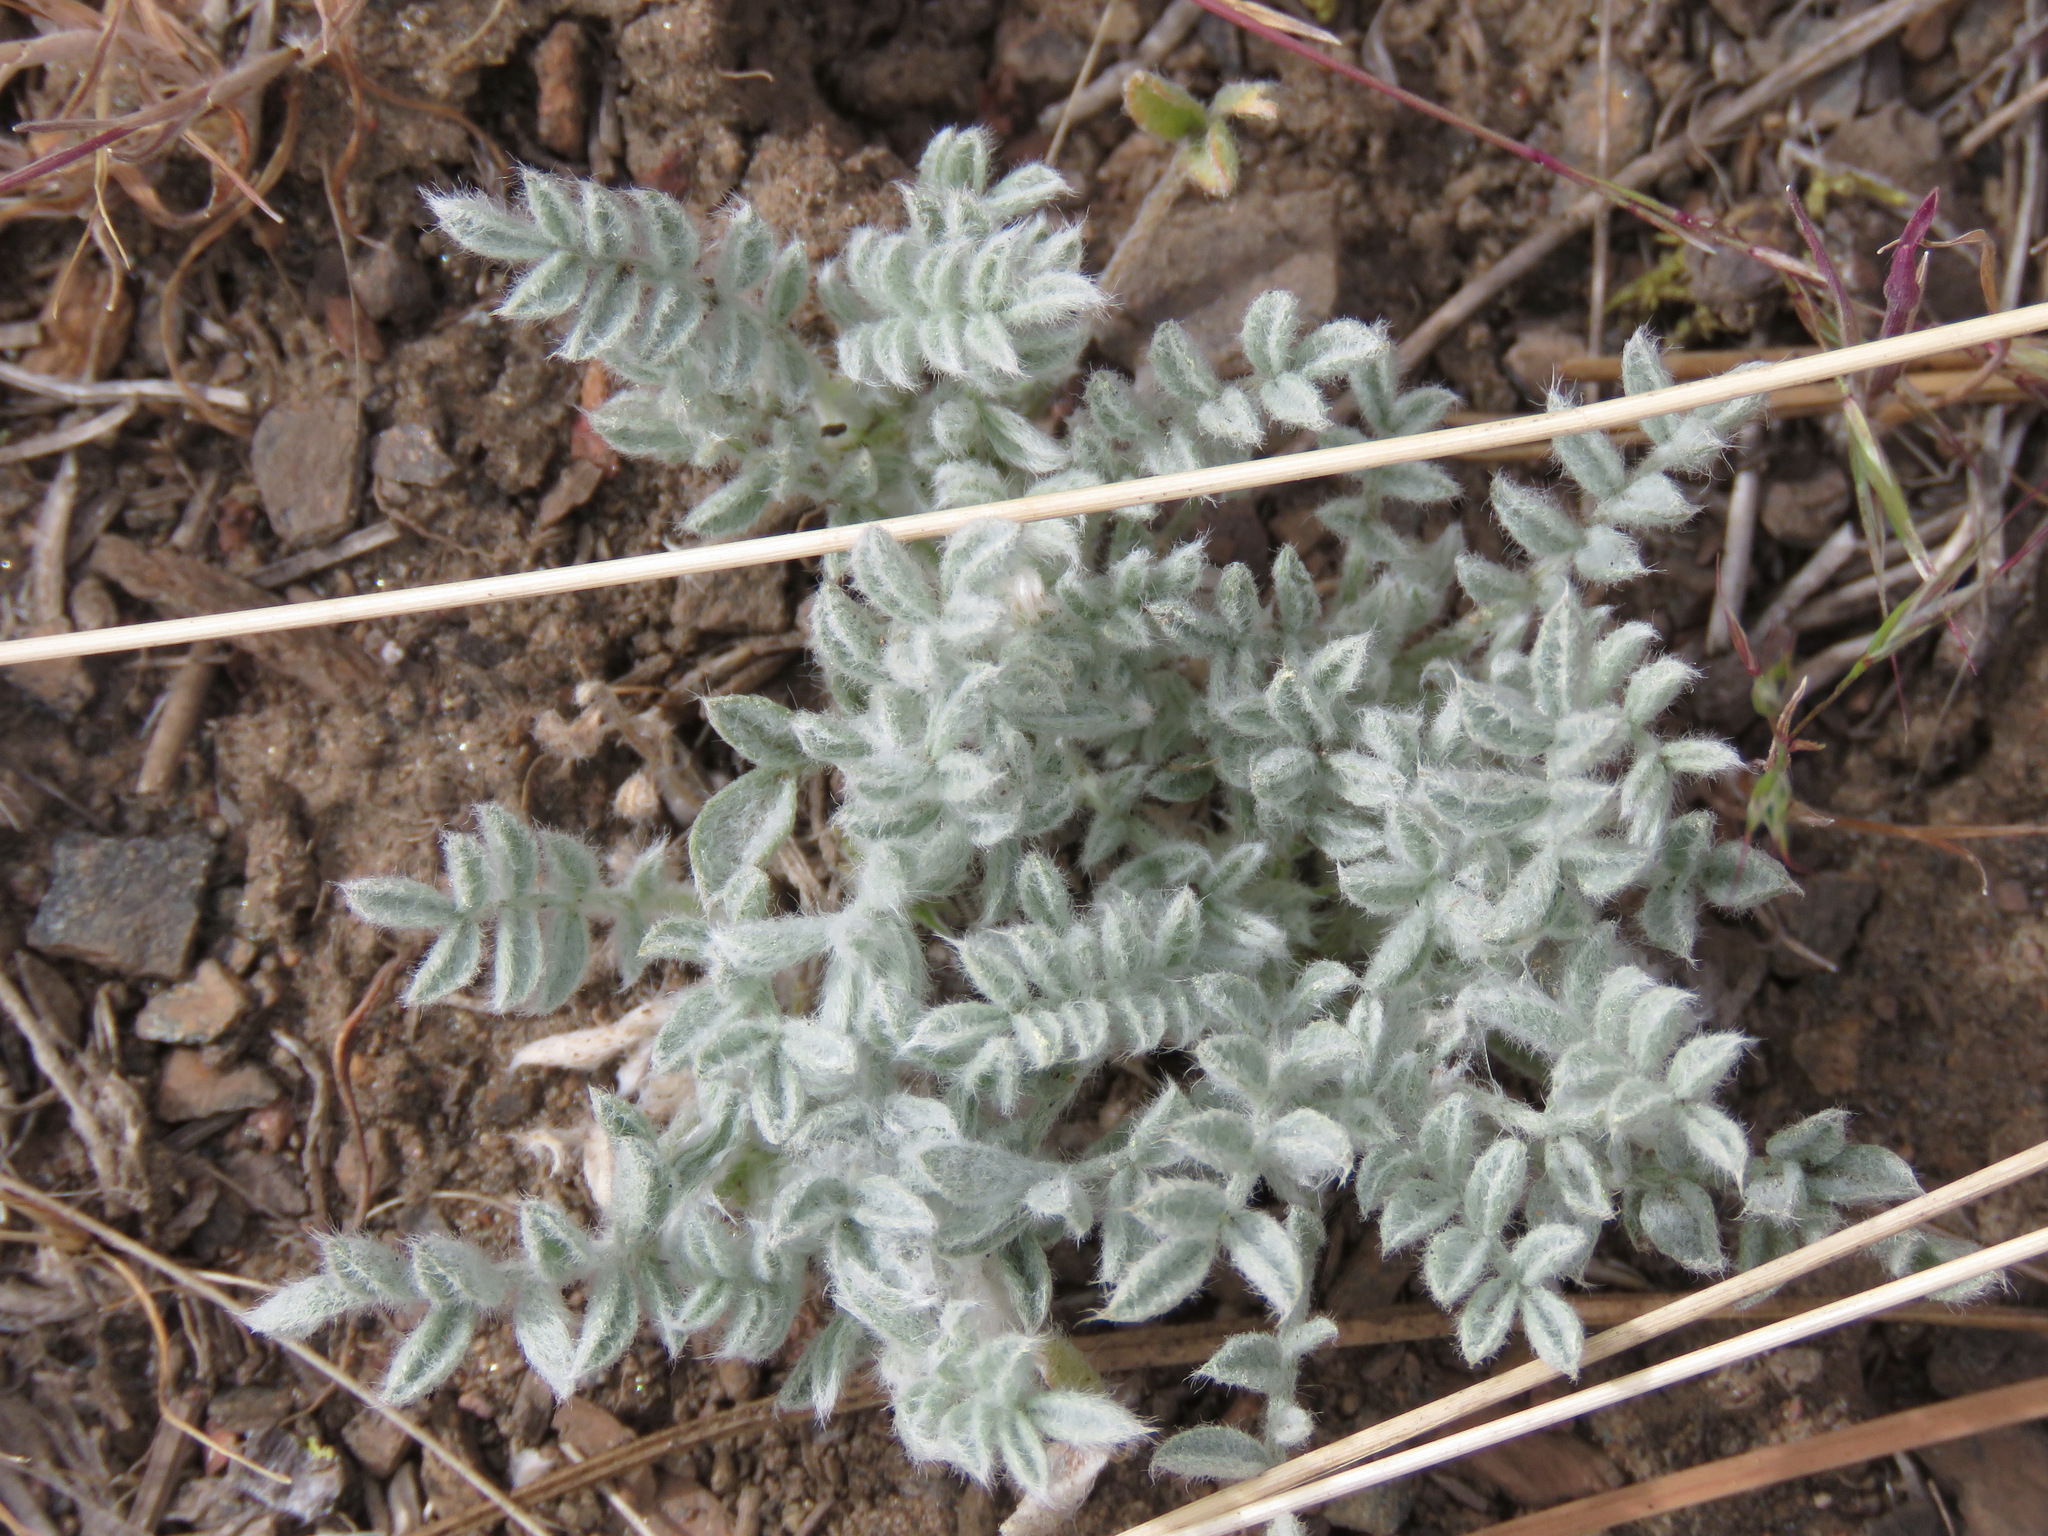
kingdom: Plantae
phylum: Tracheophyta
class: Magnoliopsida
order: Fabales
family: Fabaceae
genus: Astragalus
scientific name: Astragalus purshii
